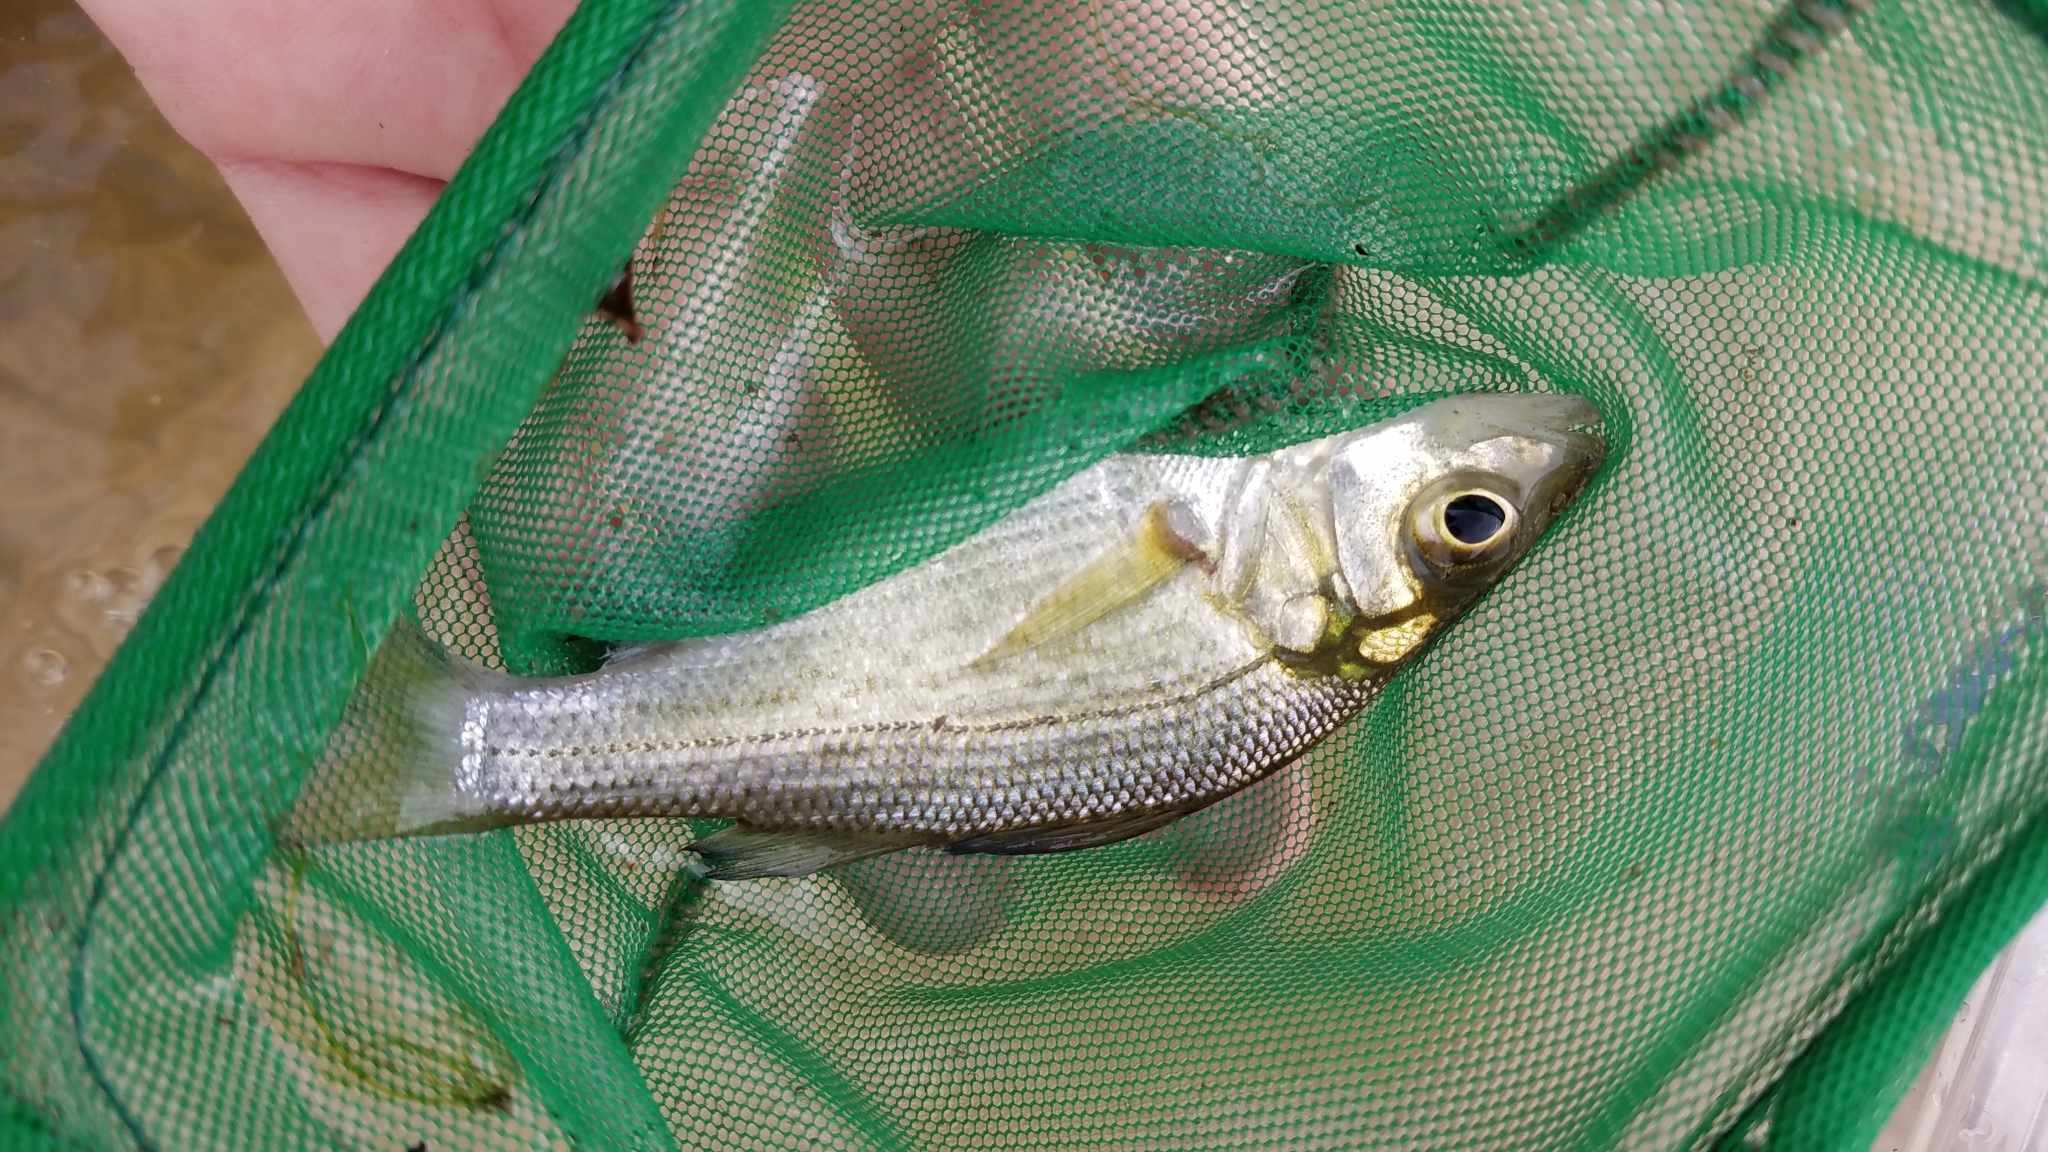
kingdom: Animalia
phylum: Chordata
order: Perciformes
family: Moronidae
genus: Morone
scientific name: Morone americana
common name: White perch
